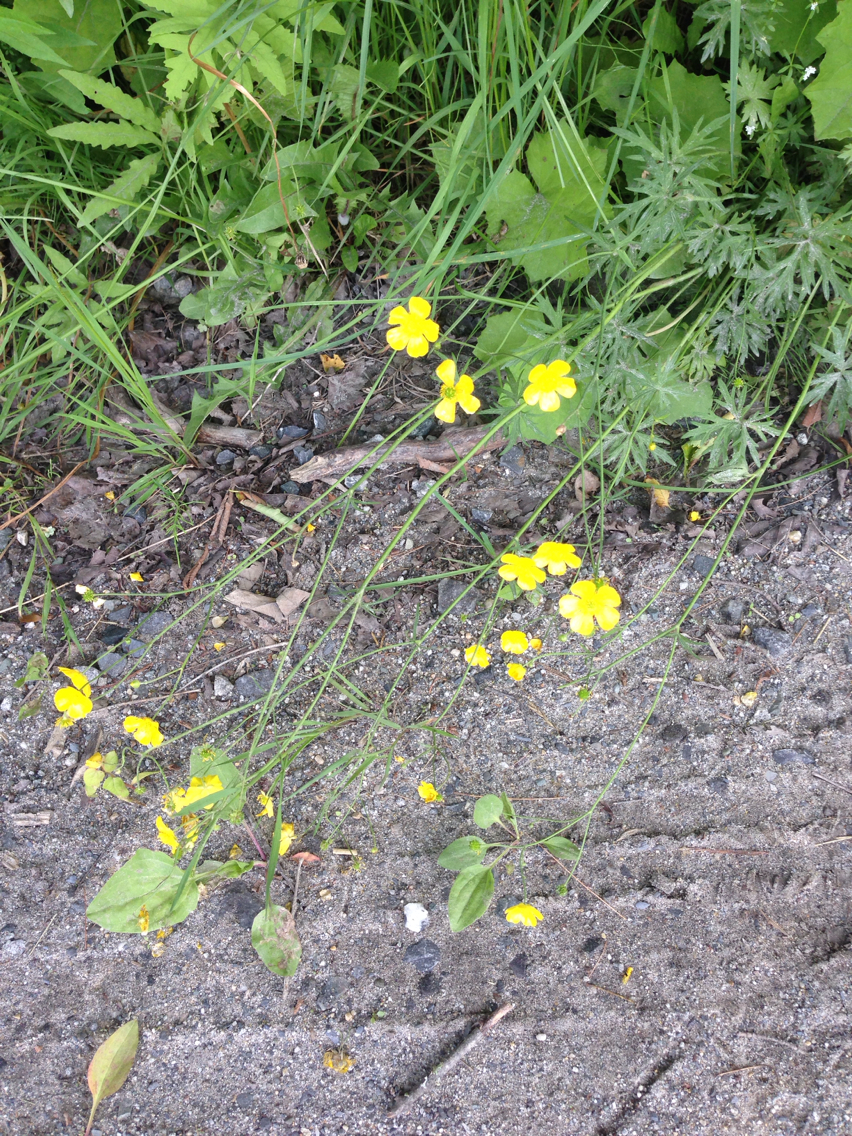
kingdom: Plantae
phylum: Tracheophyta
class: Magnoliopsida
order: Ranunculales
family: Ranunculaceae
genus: Ranunculus
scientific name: Ranunculus acris
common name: Meadow buttercup
